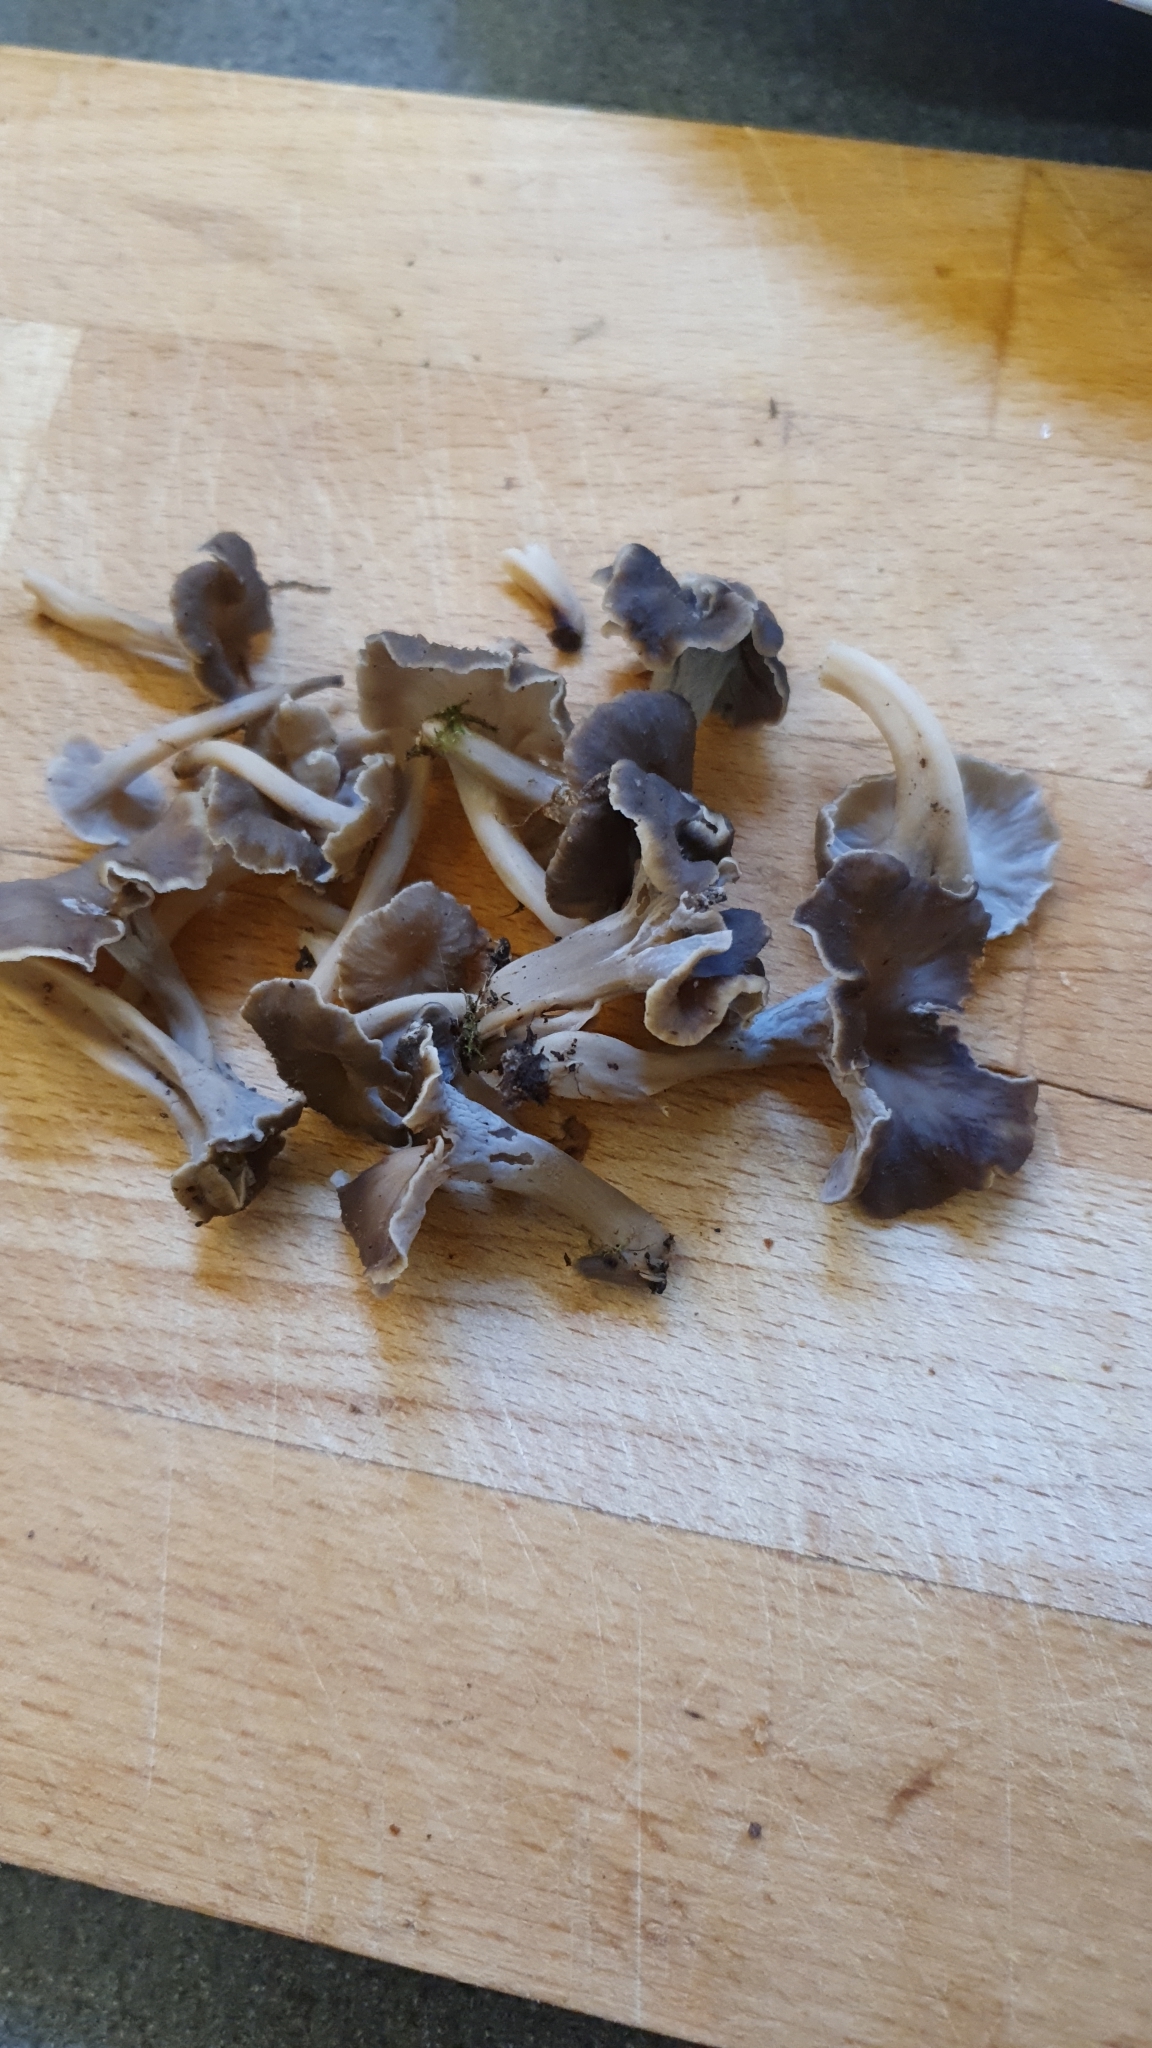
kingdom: Fungi
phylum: Basidiomycota
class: Agaricomycetes
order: Cantharellales
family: Hydnaceae
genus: Craterellus
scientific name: Craterellus undulatus
